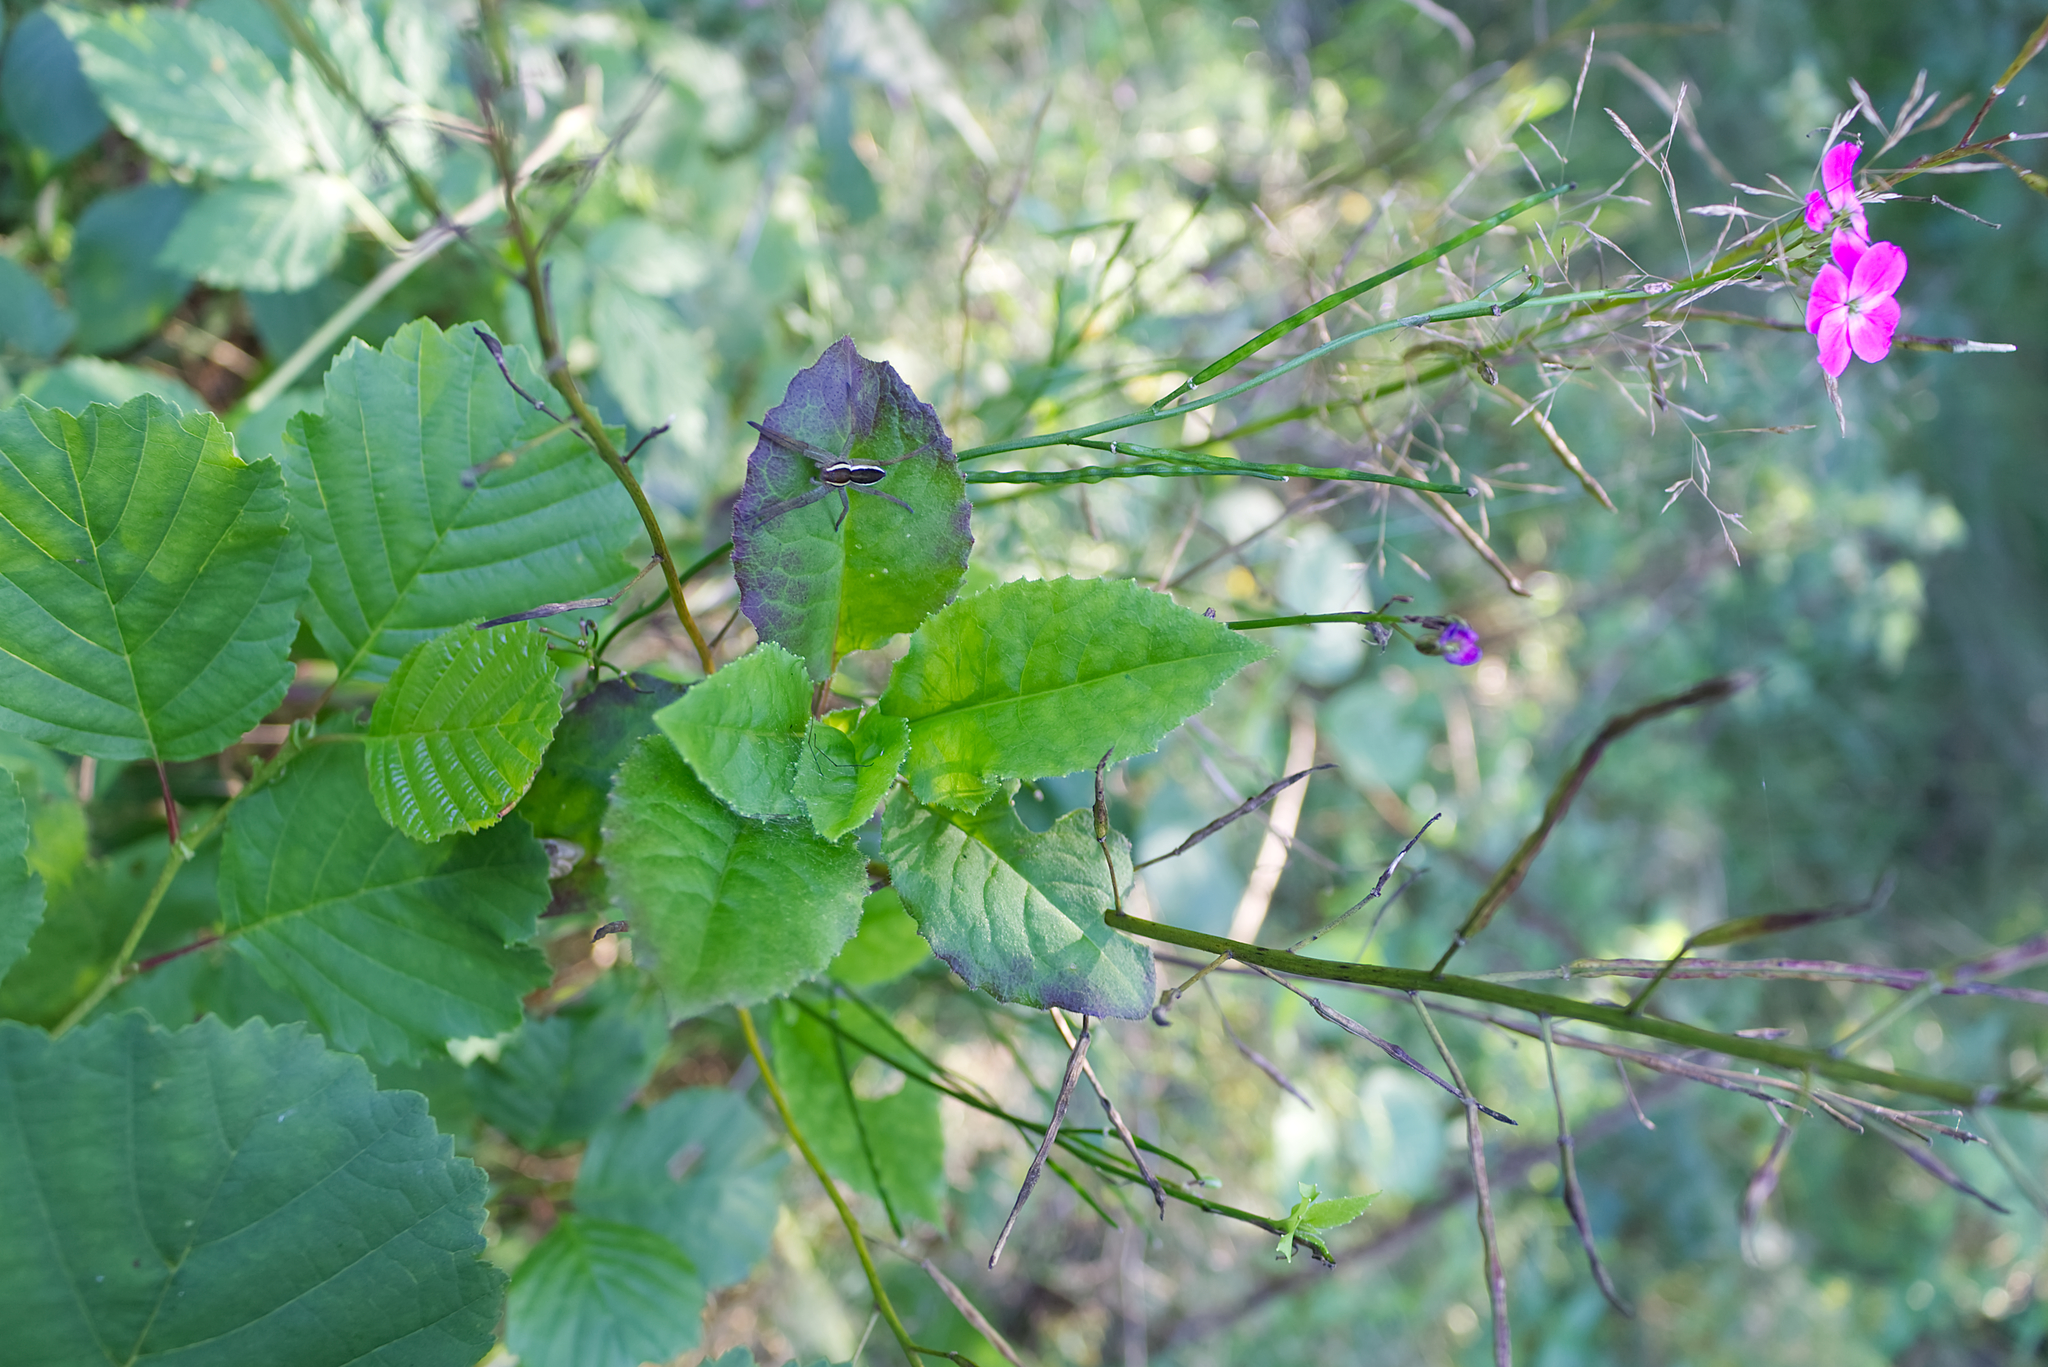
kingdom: Plantae
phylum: Tracheophyta
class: Magnoliopsida
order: Brassicales
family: Brassicaceae
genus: Hesperis
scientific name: Hesperis matronalis
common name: Dame's-violet
